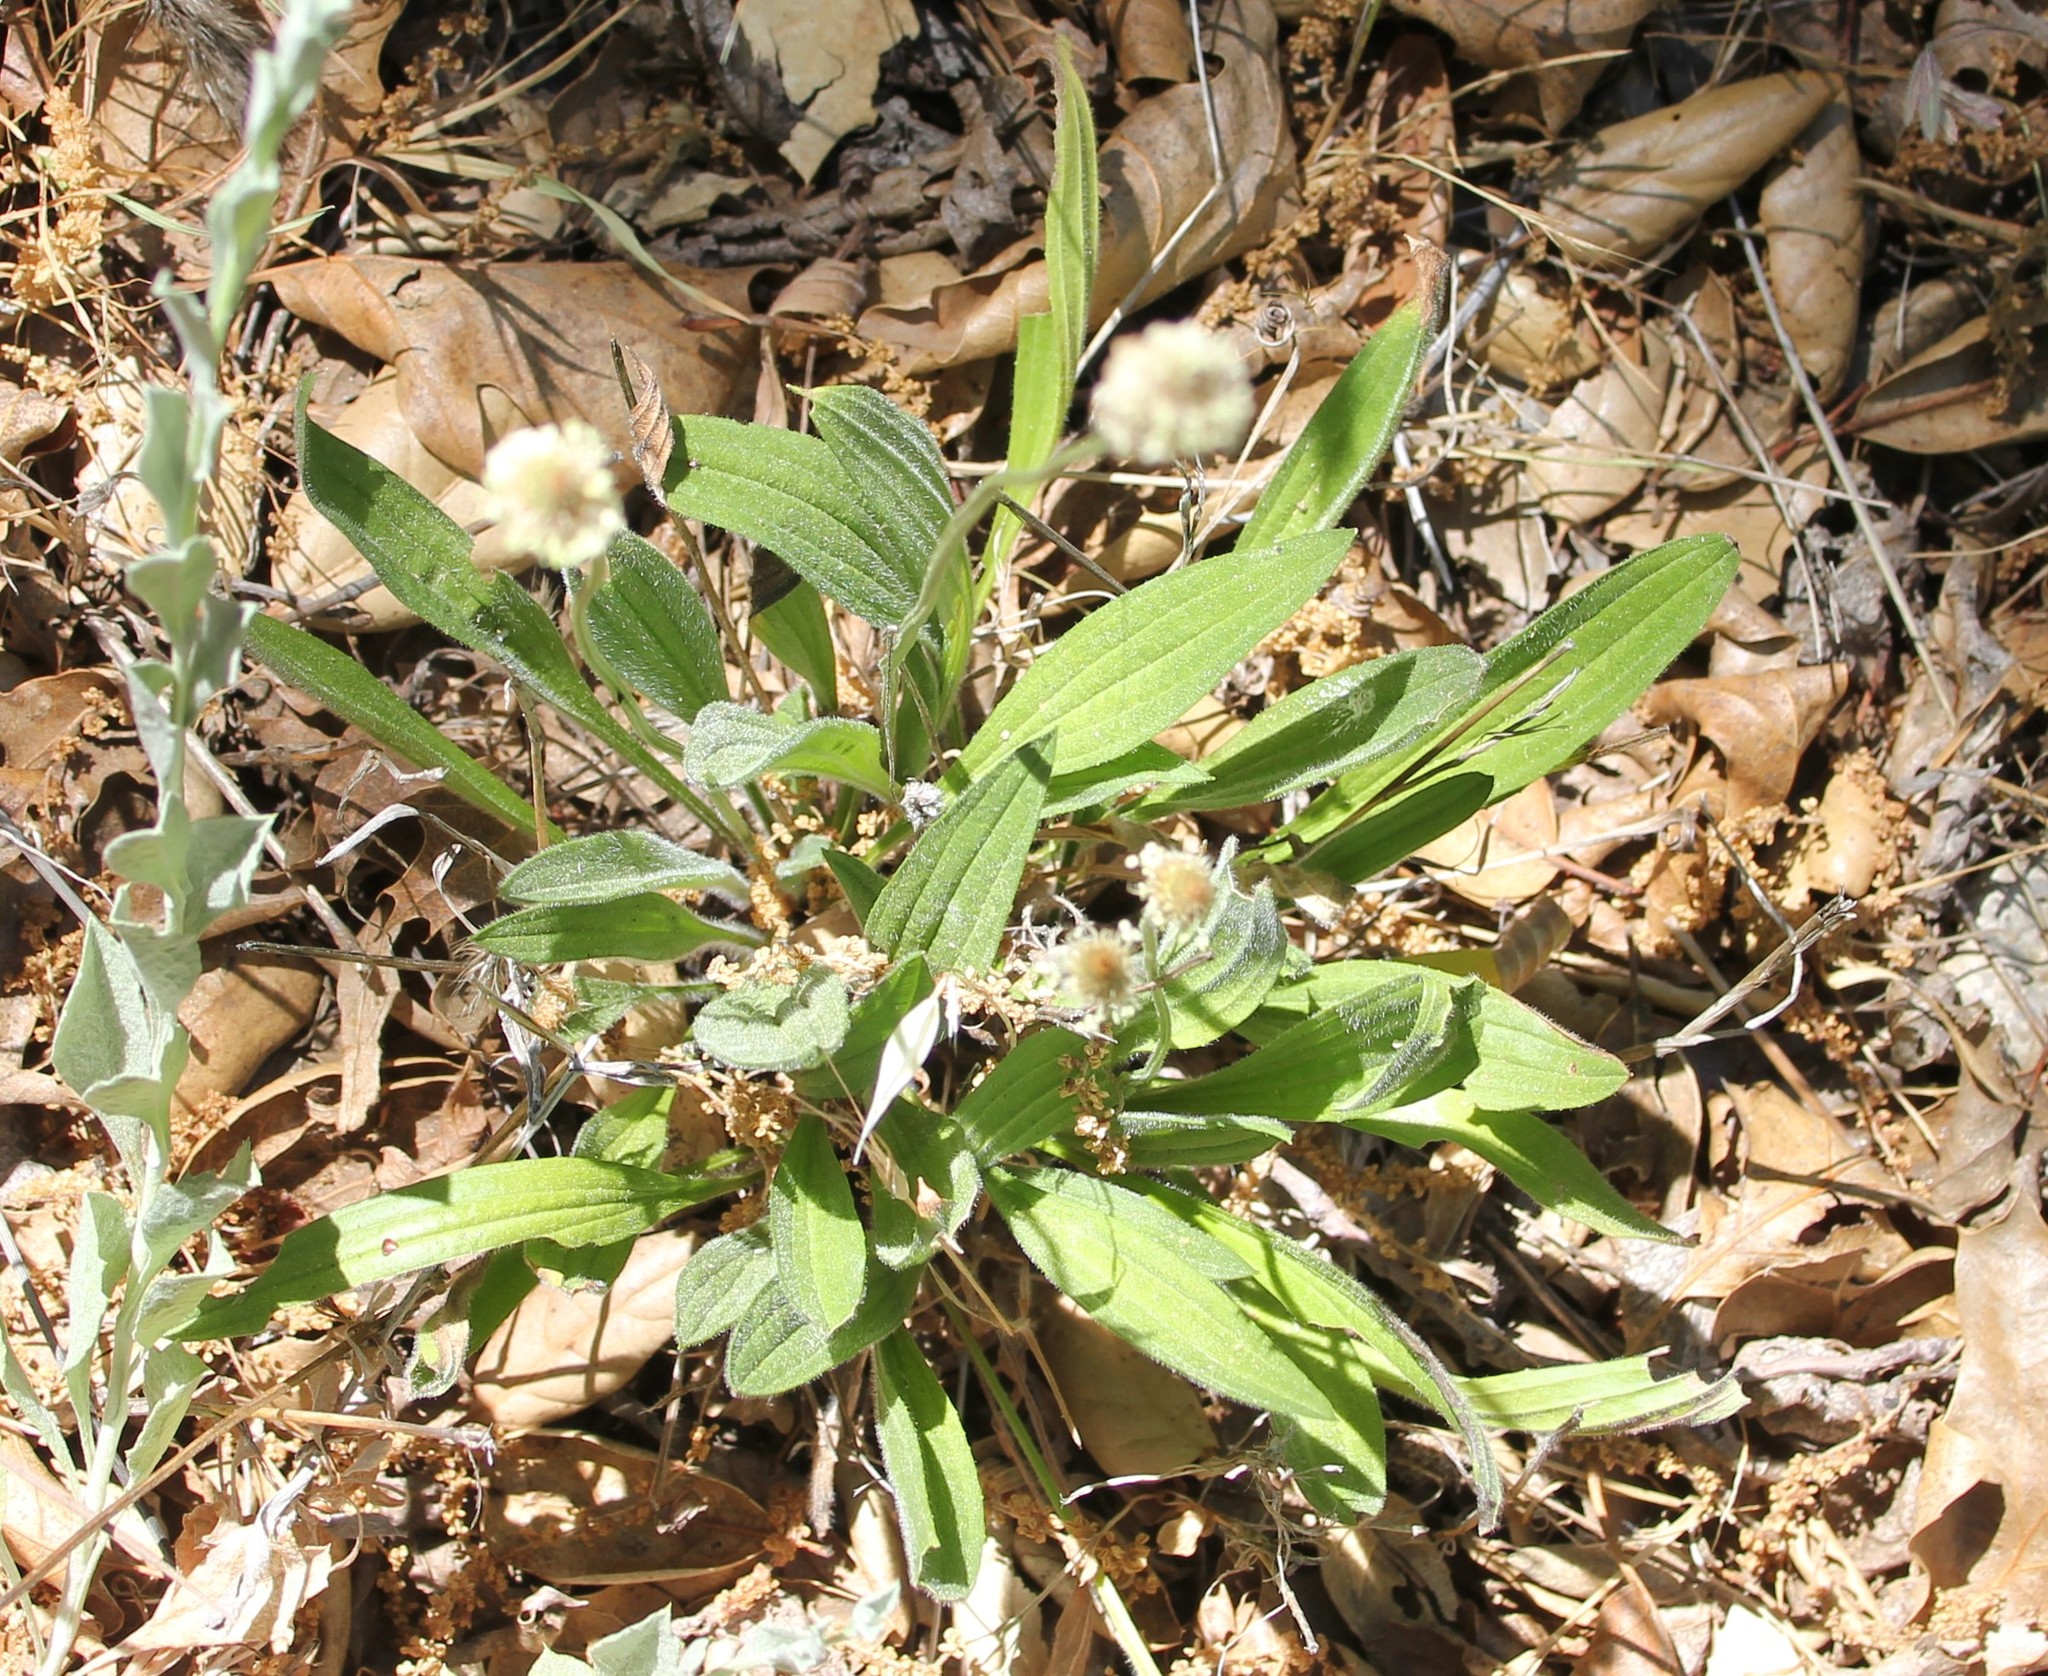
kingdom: Plantae
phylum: Tracheophyta
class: Magnoliopsida
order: Lamiales
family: Plantaginaceae
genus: Plantago
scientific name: Plantago lanceolata
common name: Ribwort plantain
